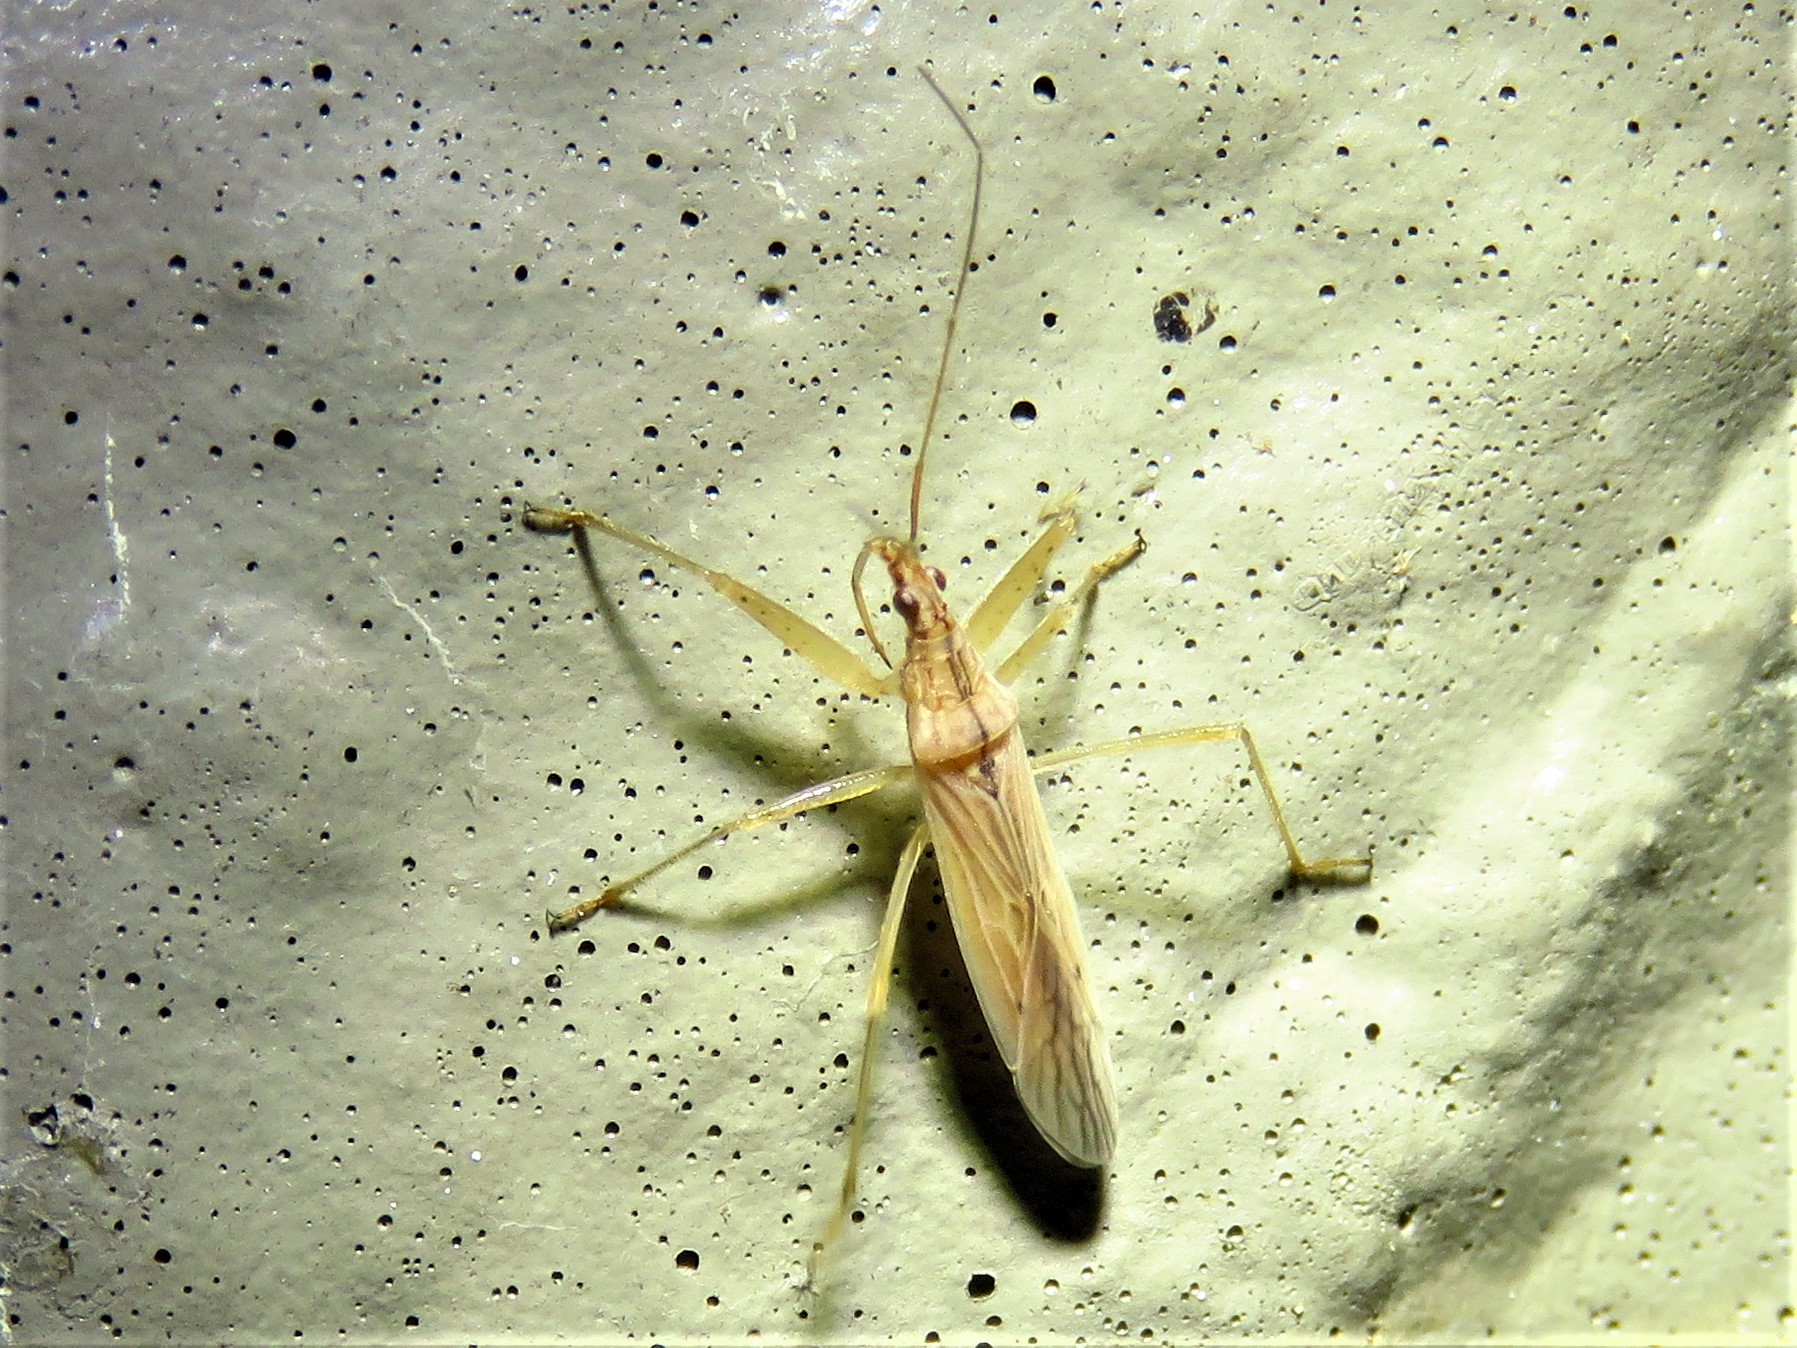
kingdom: Animalia
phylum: Arthropoda
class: Insecta
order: Hemiptera
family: Nabidae
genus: Nabis
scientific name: Nabis capsiformis
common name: Pale damsel bug
